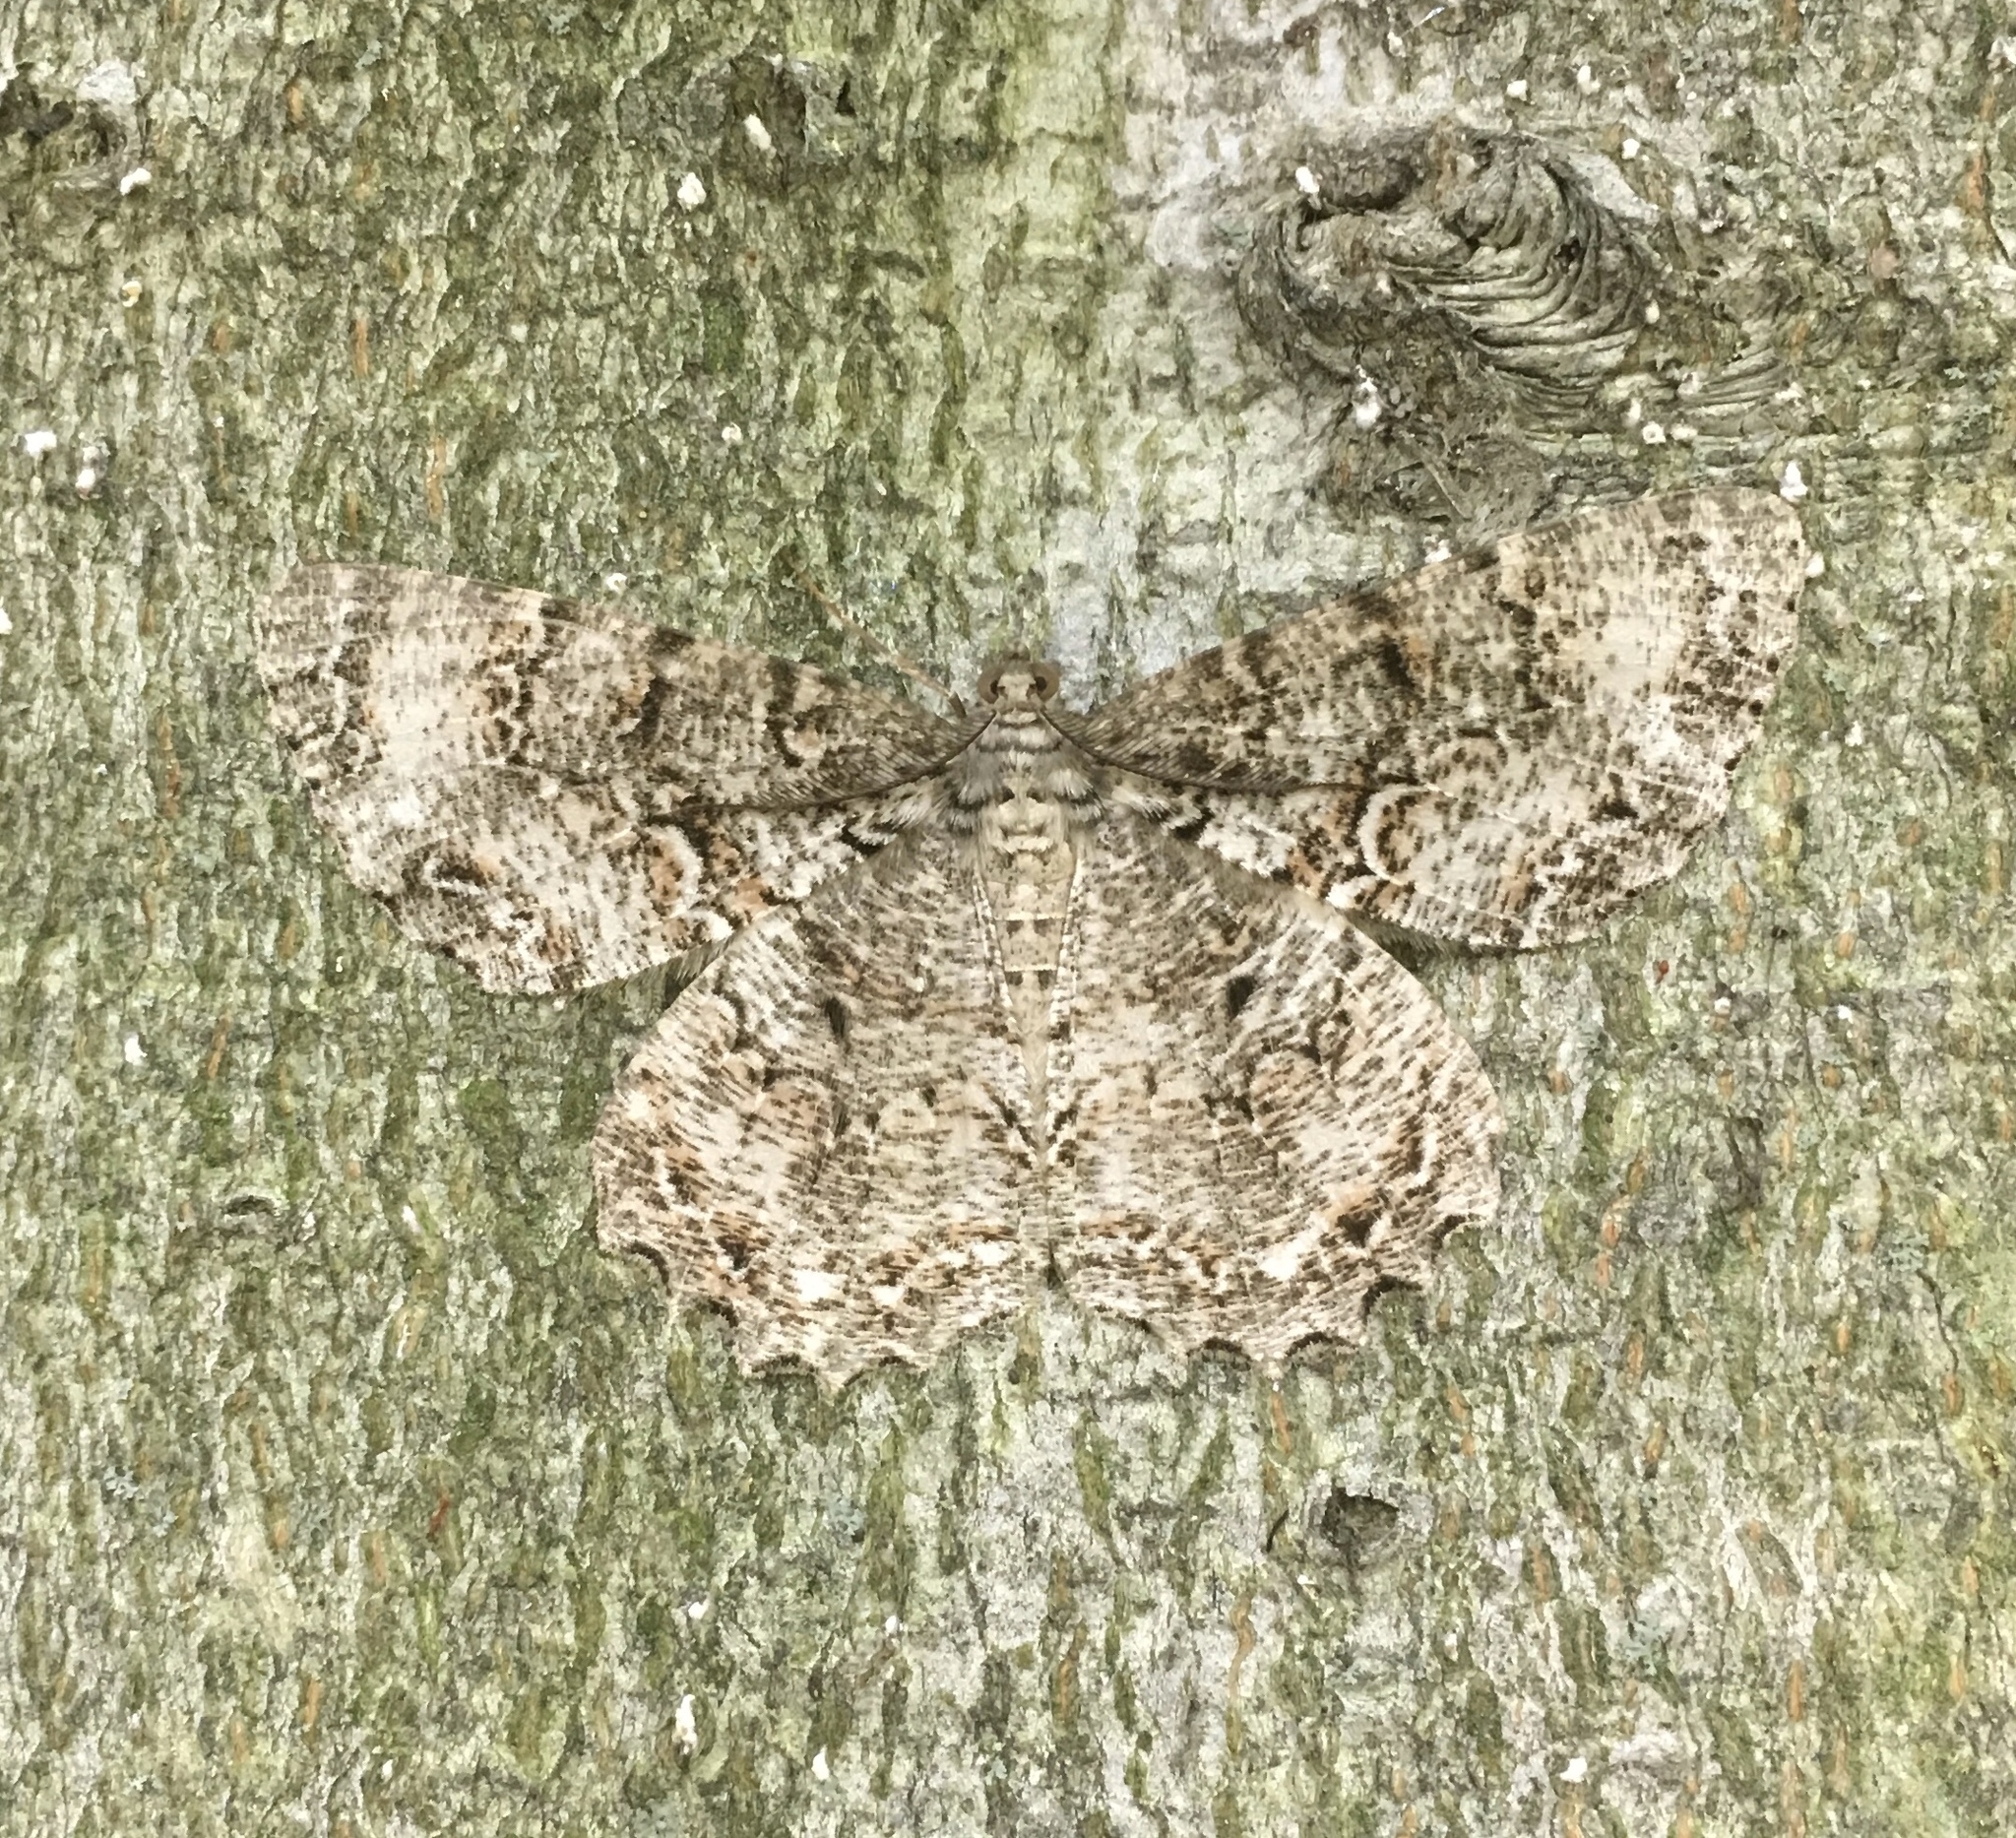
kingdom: Animalia
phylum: Arthropoda
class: Insecta
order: Lepidoptera
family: Geometridae
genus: Epimecis
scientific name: Epimecis hortaria
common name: Tulip-tree beauty
